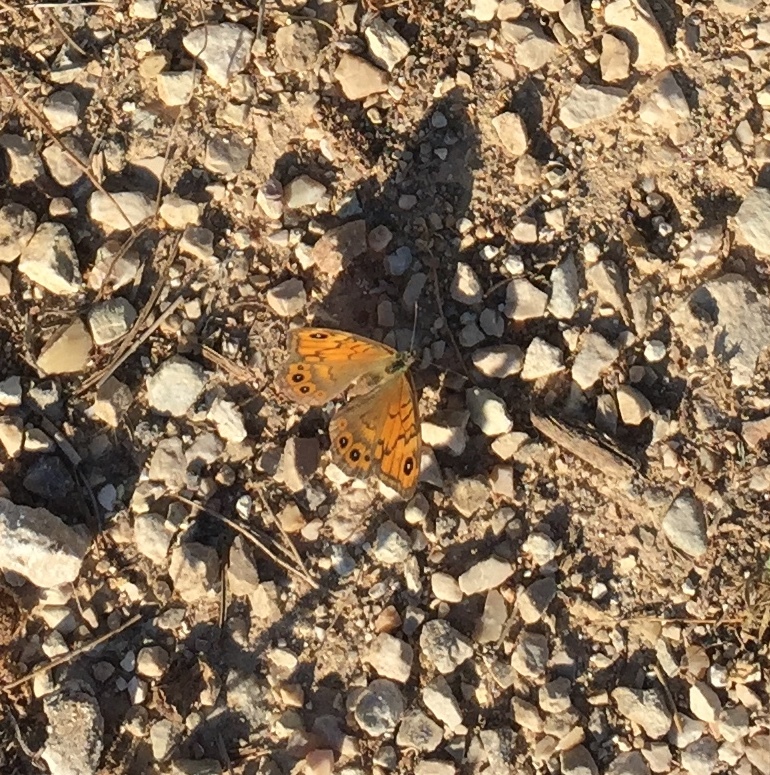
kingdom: Animalia
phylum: Arthropoda
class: Insecta
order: Lepidoptera
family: Nymphalidae
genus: Pararge
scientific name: Pararge Lasiommata megera
